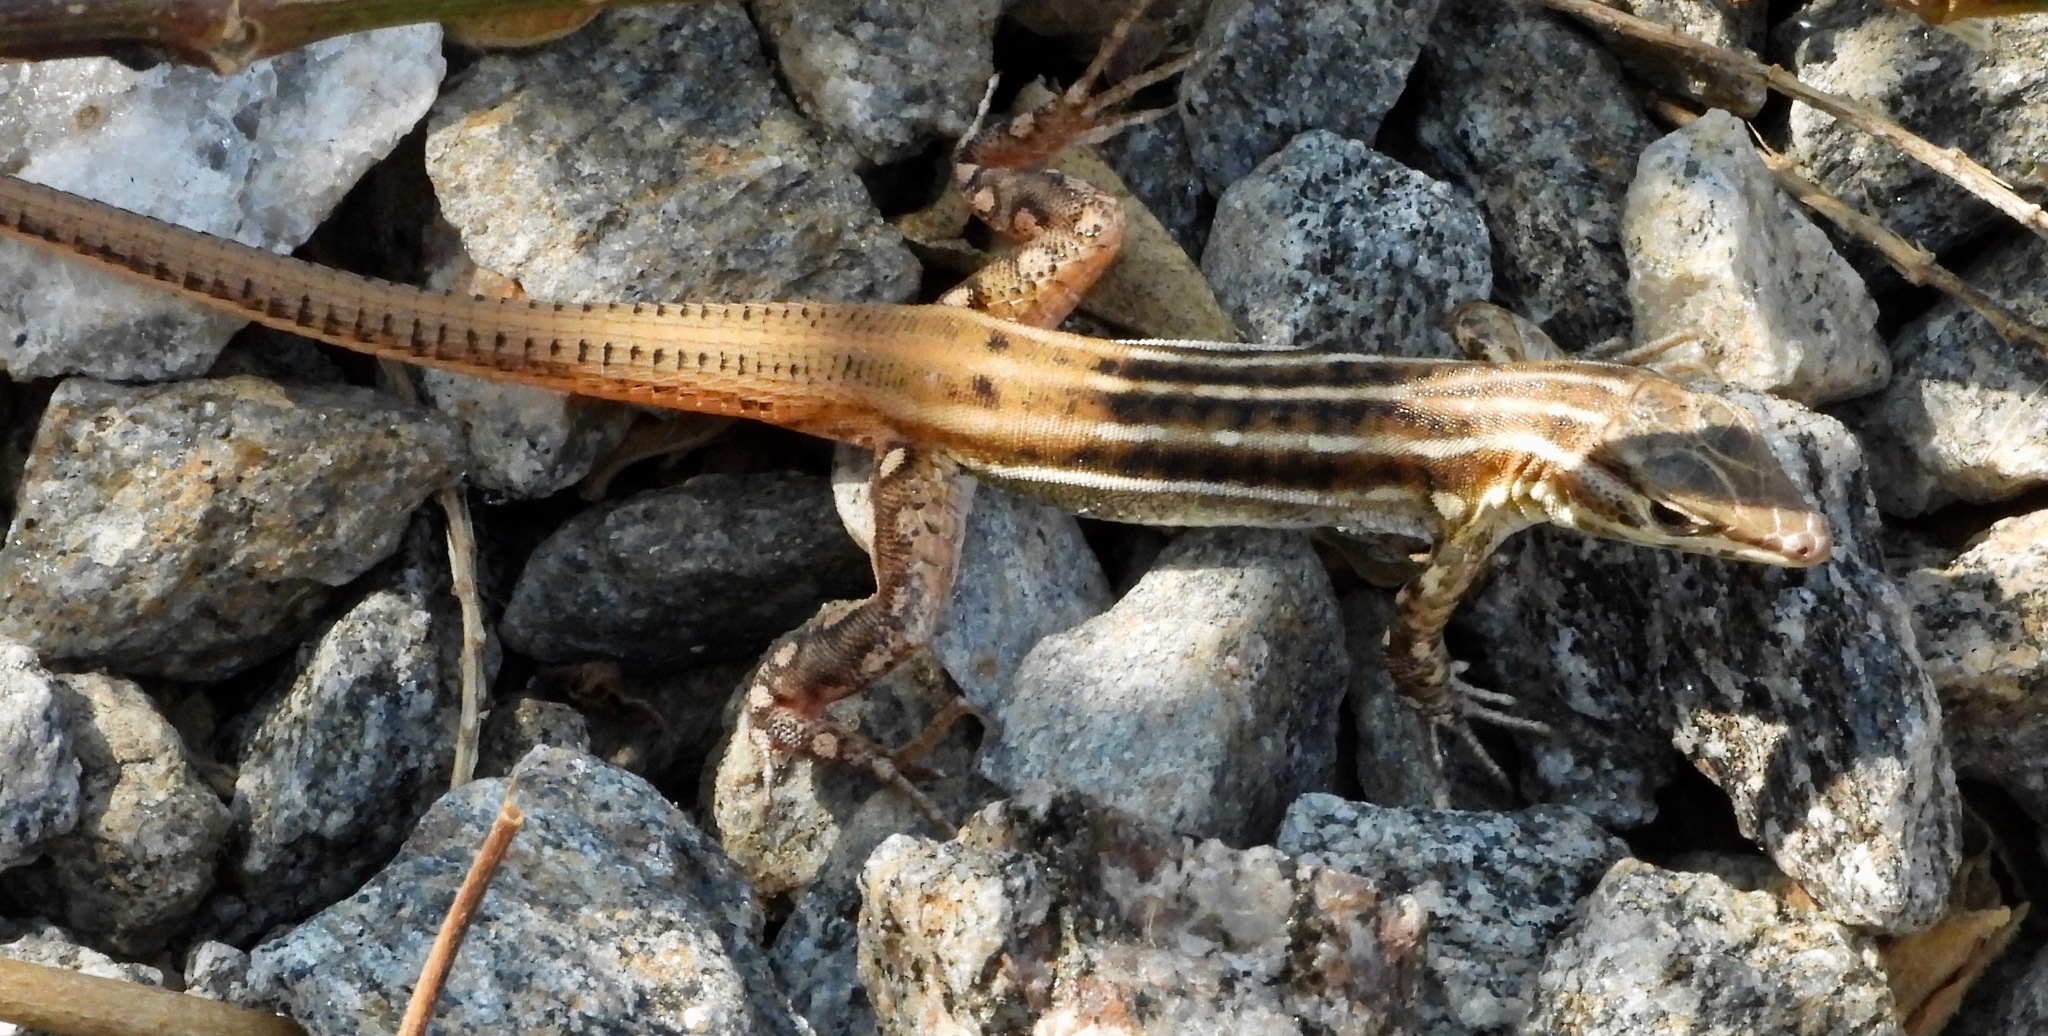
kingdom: Animalia
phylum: Chordata
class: Squamata
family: Lacertidae
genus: Heliobolus
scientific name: Heliobolus
